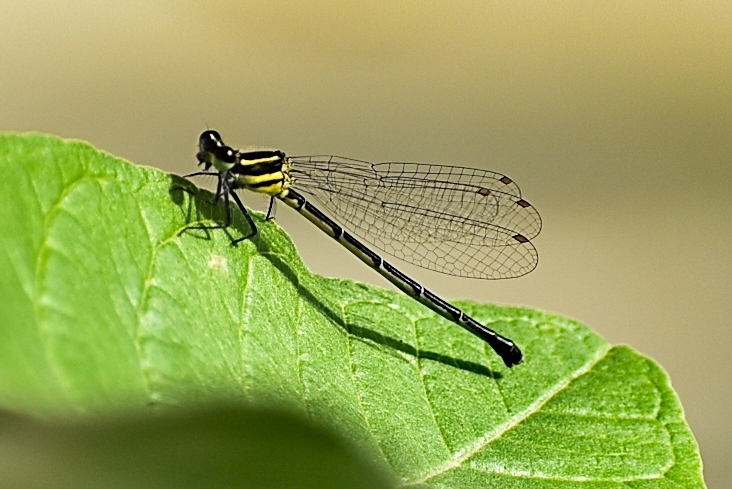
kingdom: Animalia
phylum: Arthropoda
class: Insecta
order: Odonata
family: Platycnemididae
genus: Onychargia
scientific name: Onychargia atrocyana
